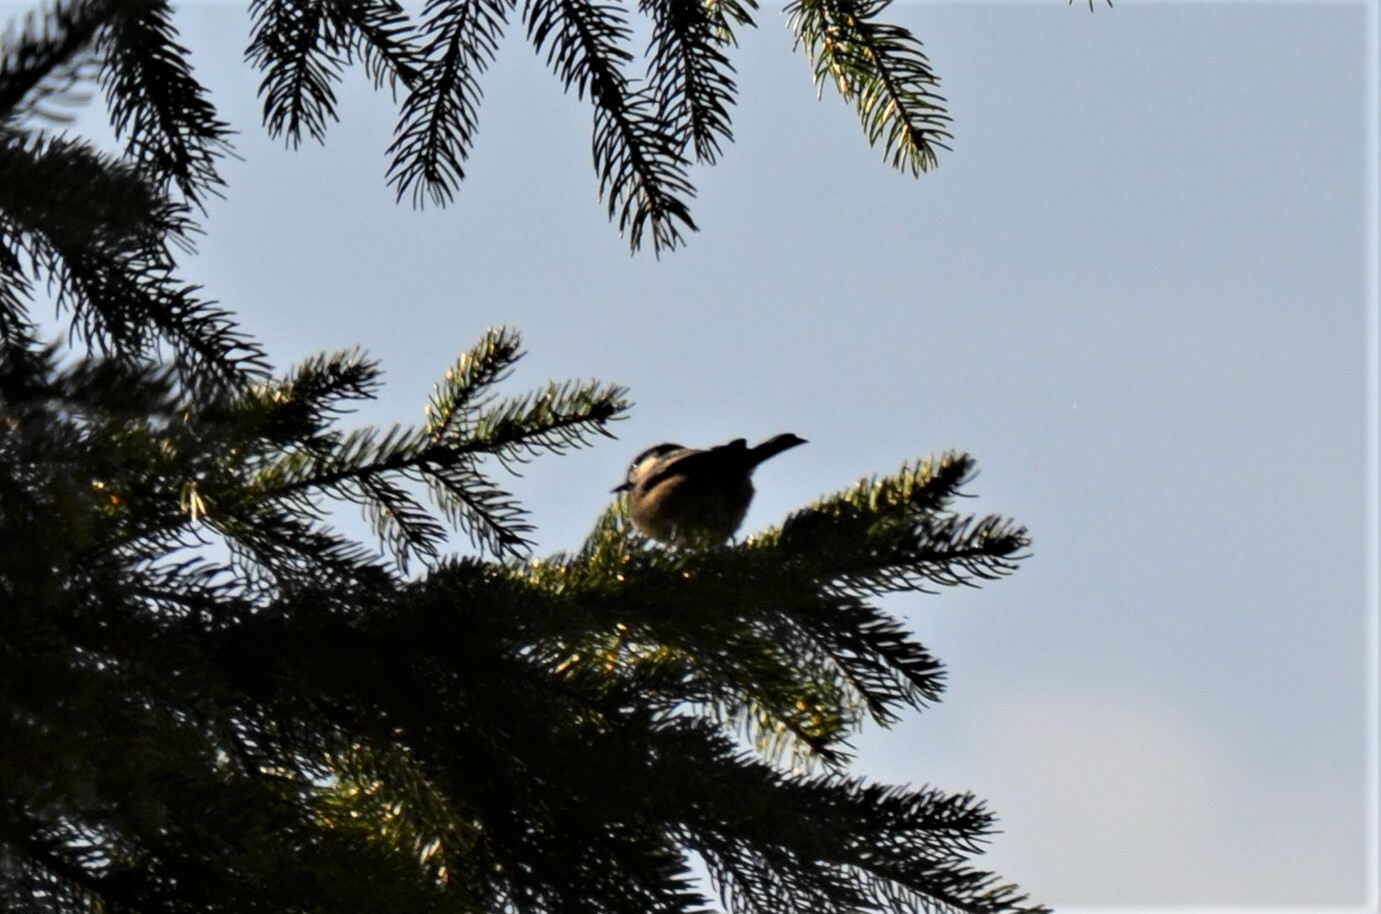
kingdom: Animalia
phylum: Chordata
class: Aves
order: Passeriformes
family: Paridae
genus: Periparus
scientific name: Periparus ater
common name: Coal tit
